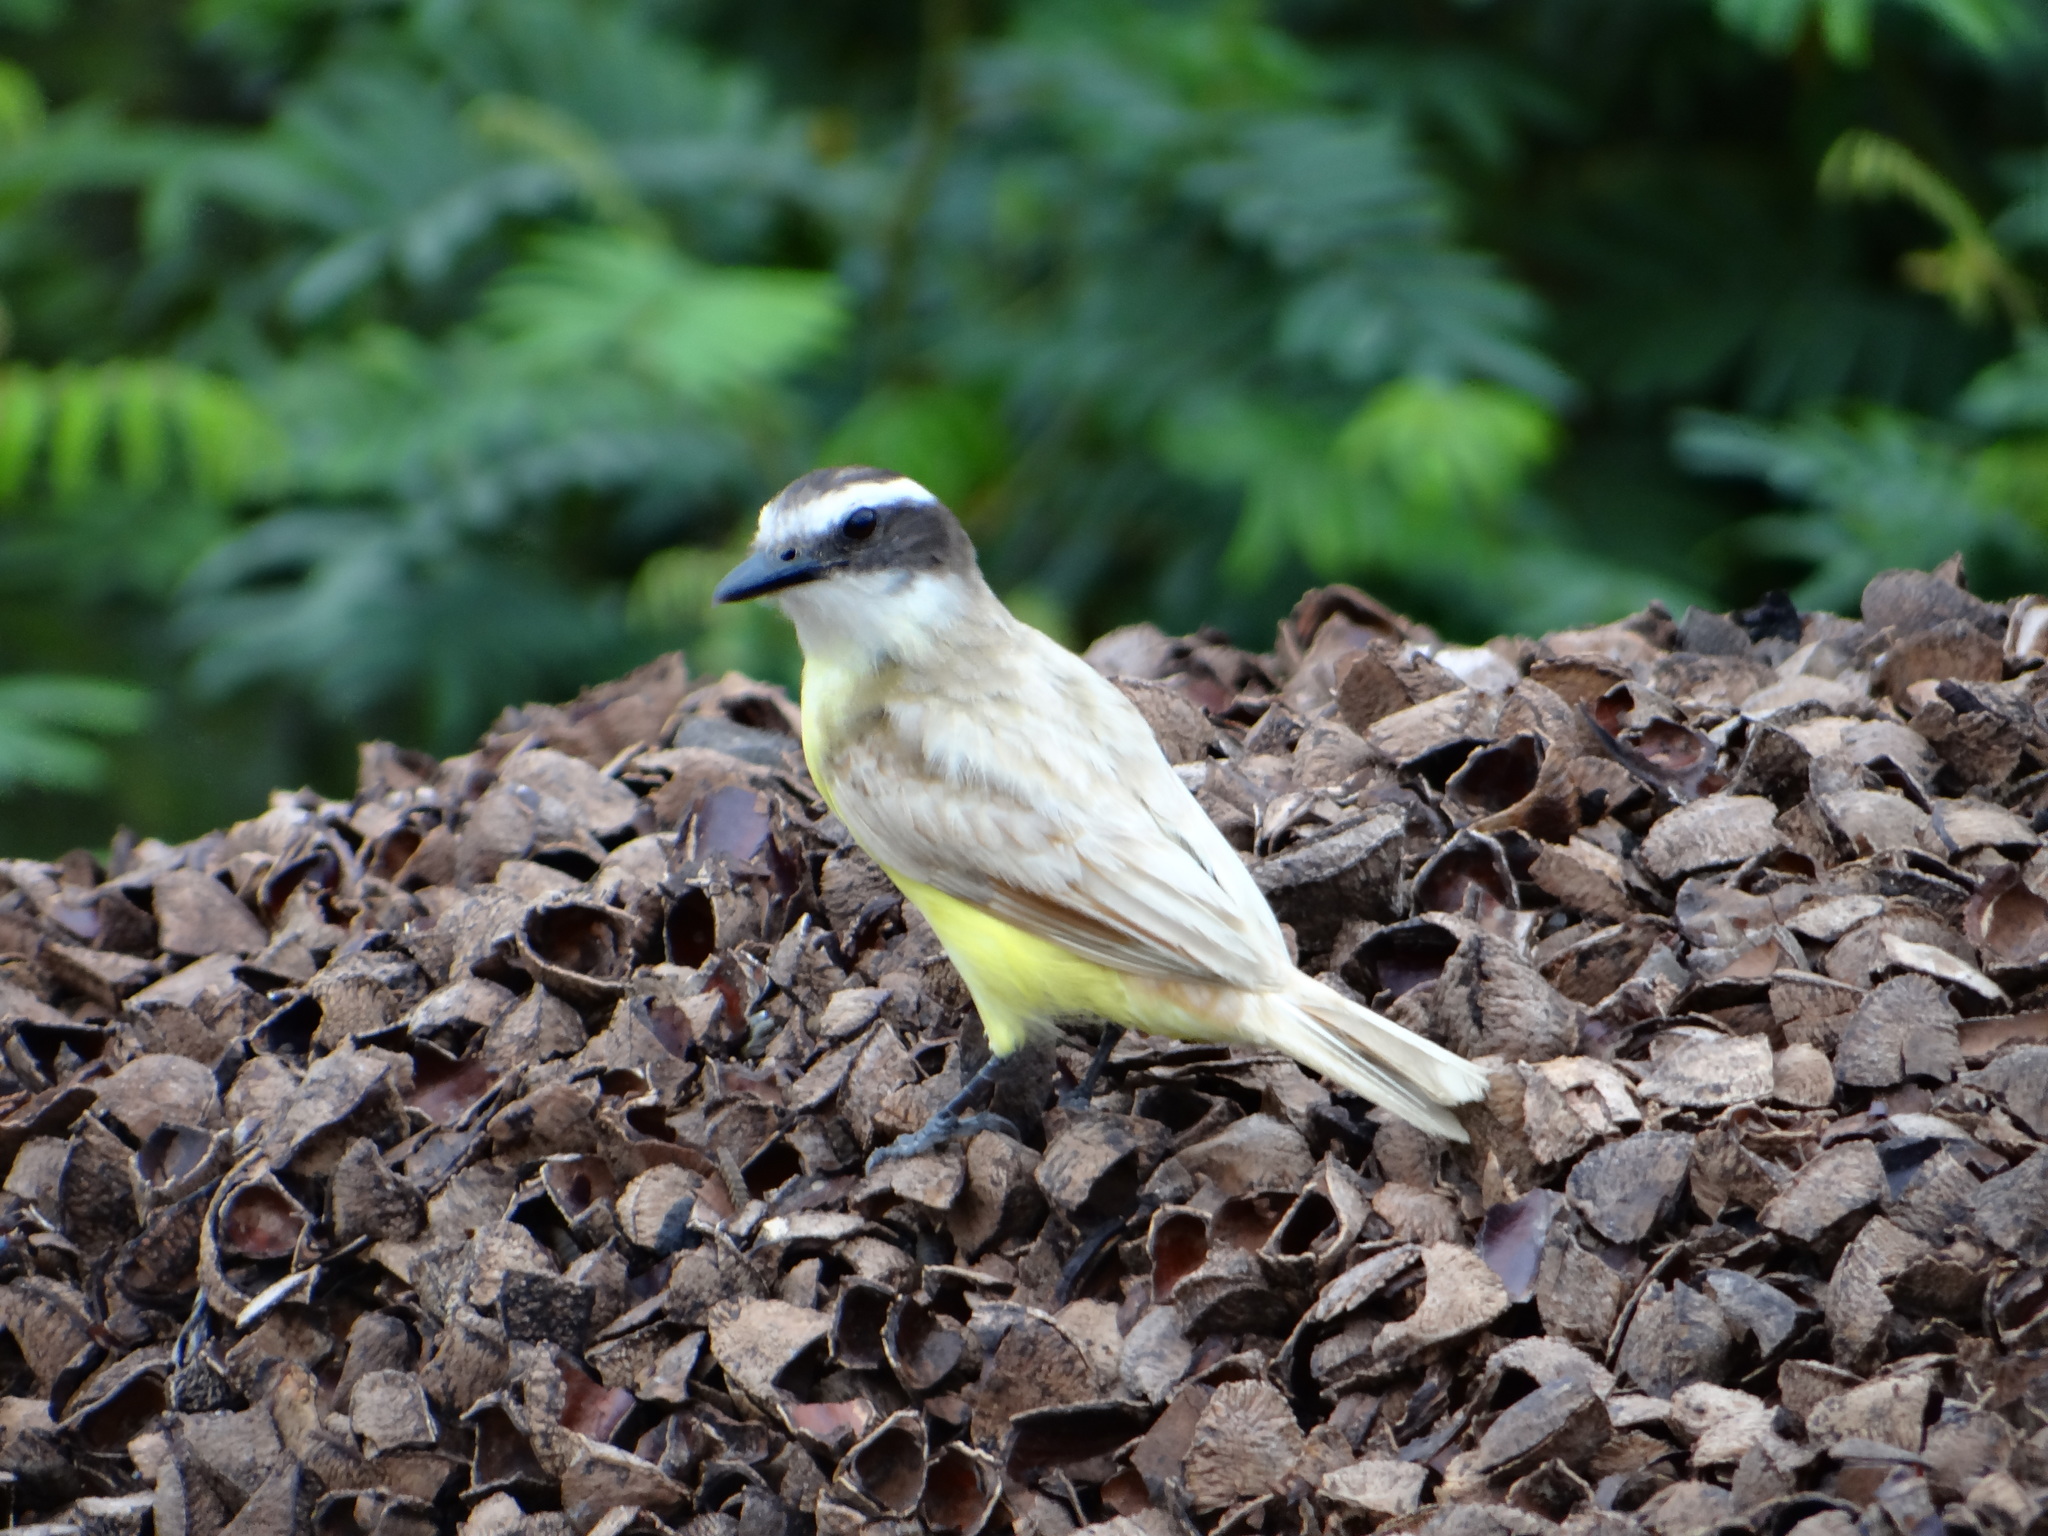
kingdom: Animalia
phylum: Chordata
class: Aves
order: Passeriformes
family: Tyrannidae
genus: Pitangus
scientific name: Pitangus sulphuratus
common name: Great kiskadee
